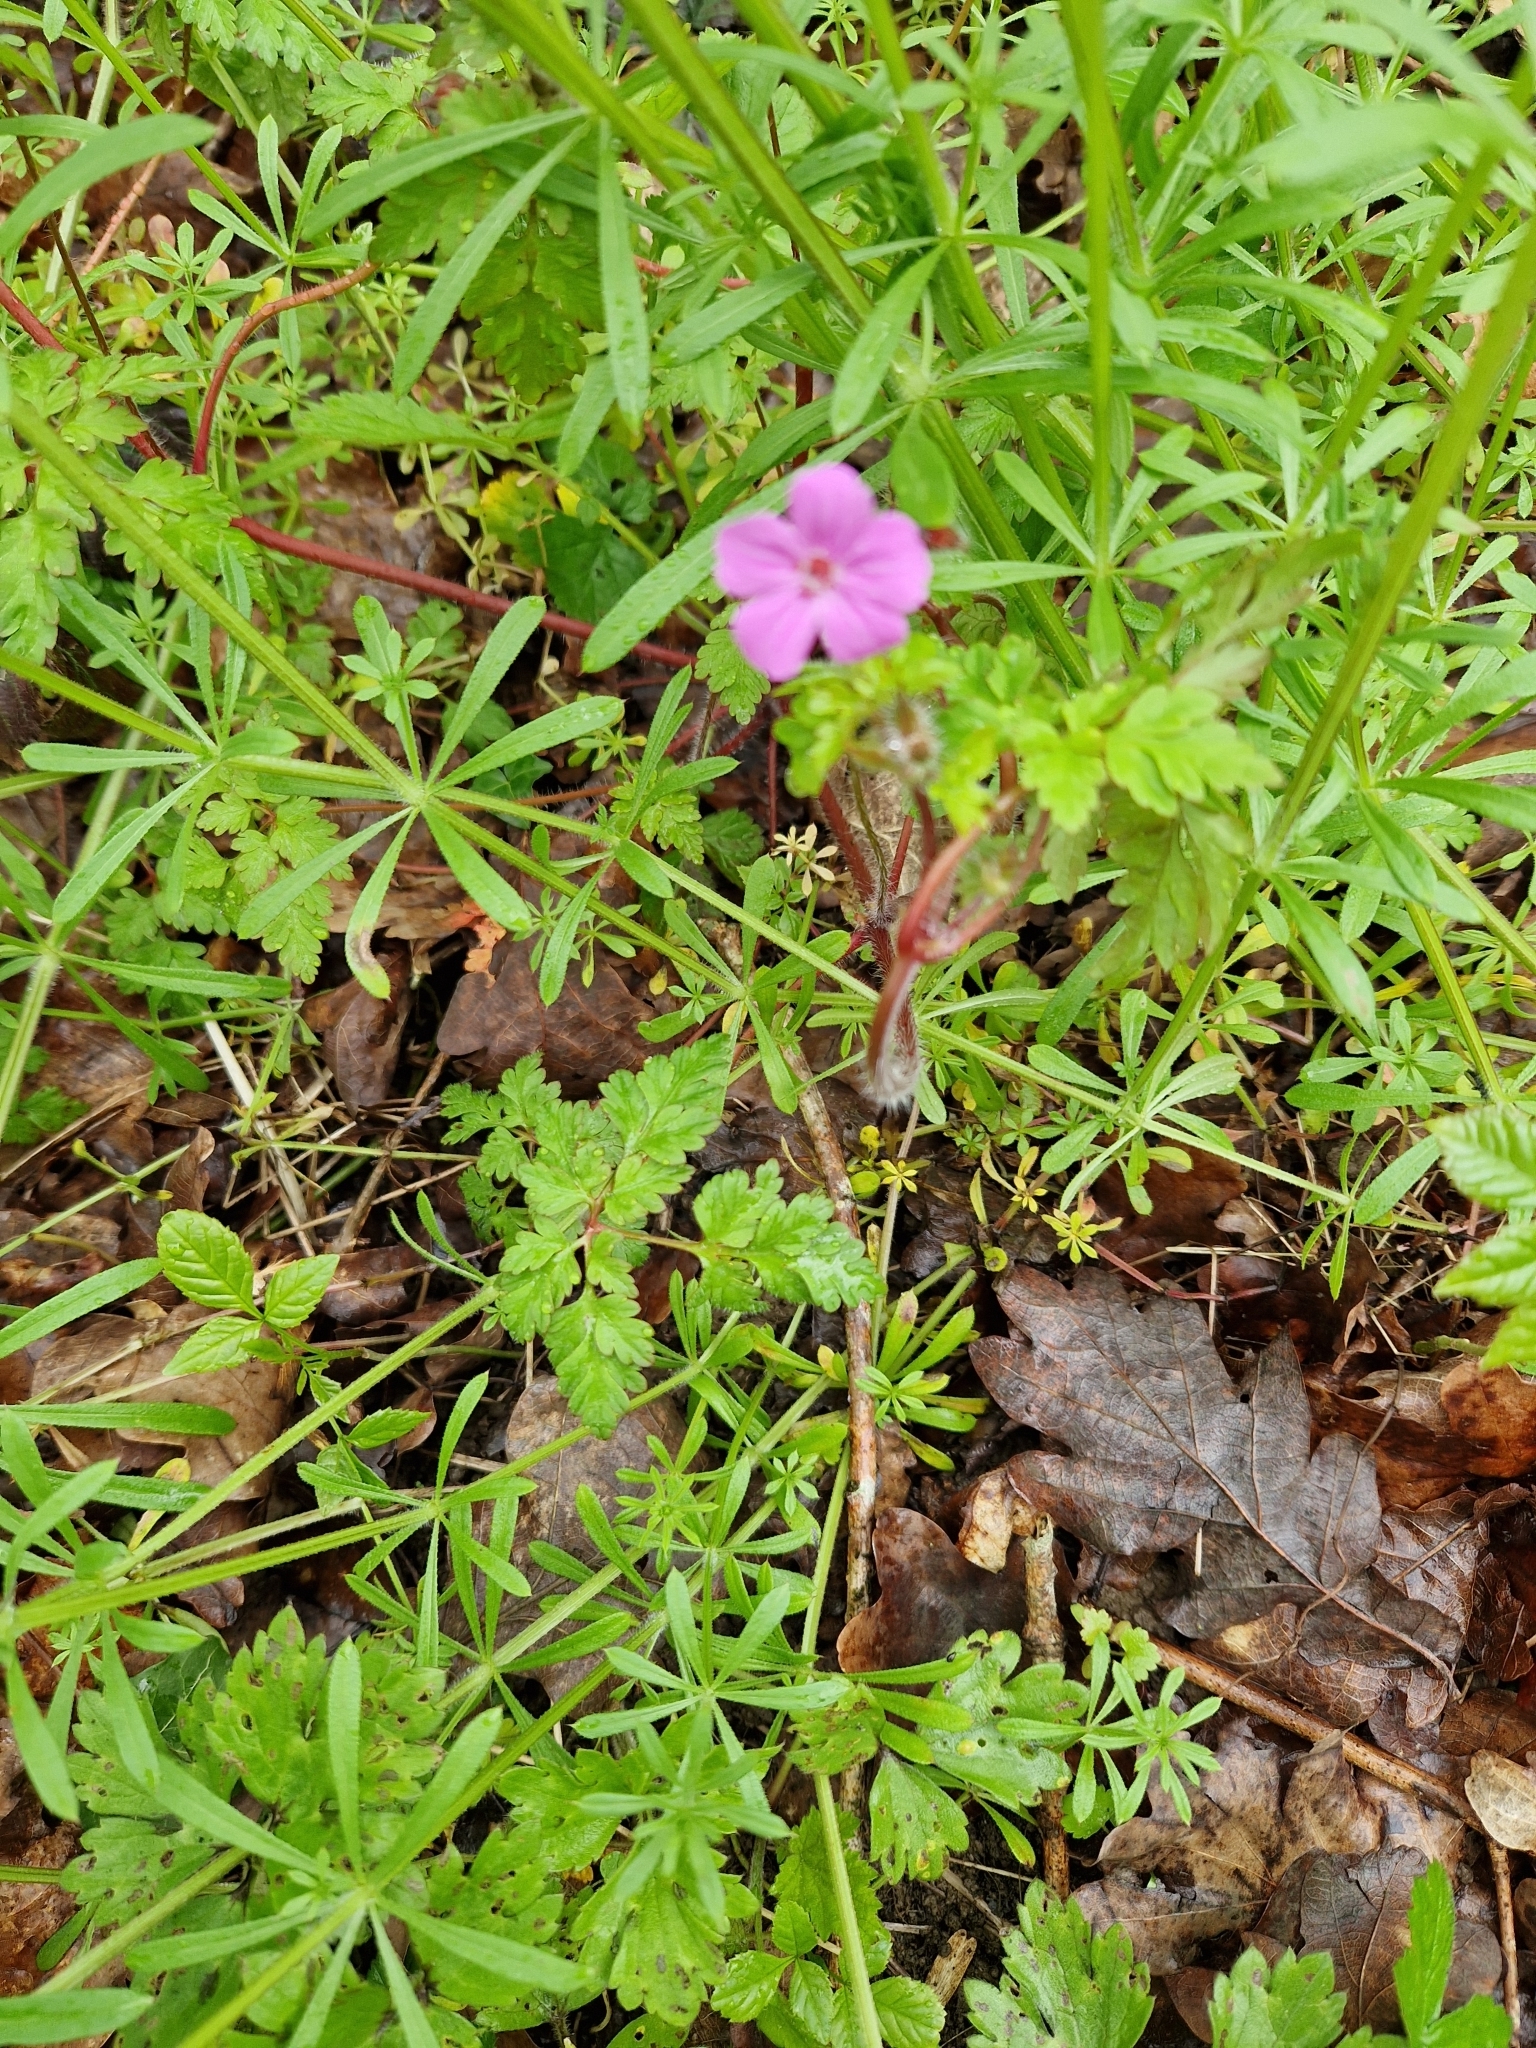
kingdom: Plantae
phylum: Tracheophyta
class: Magnoliopsida
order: Geraniales
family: Geraniaceae
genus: Geranium
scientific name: Geranium robertianum
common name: Herb-robert
